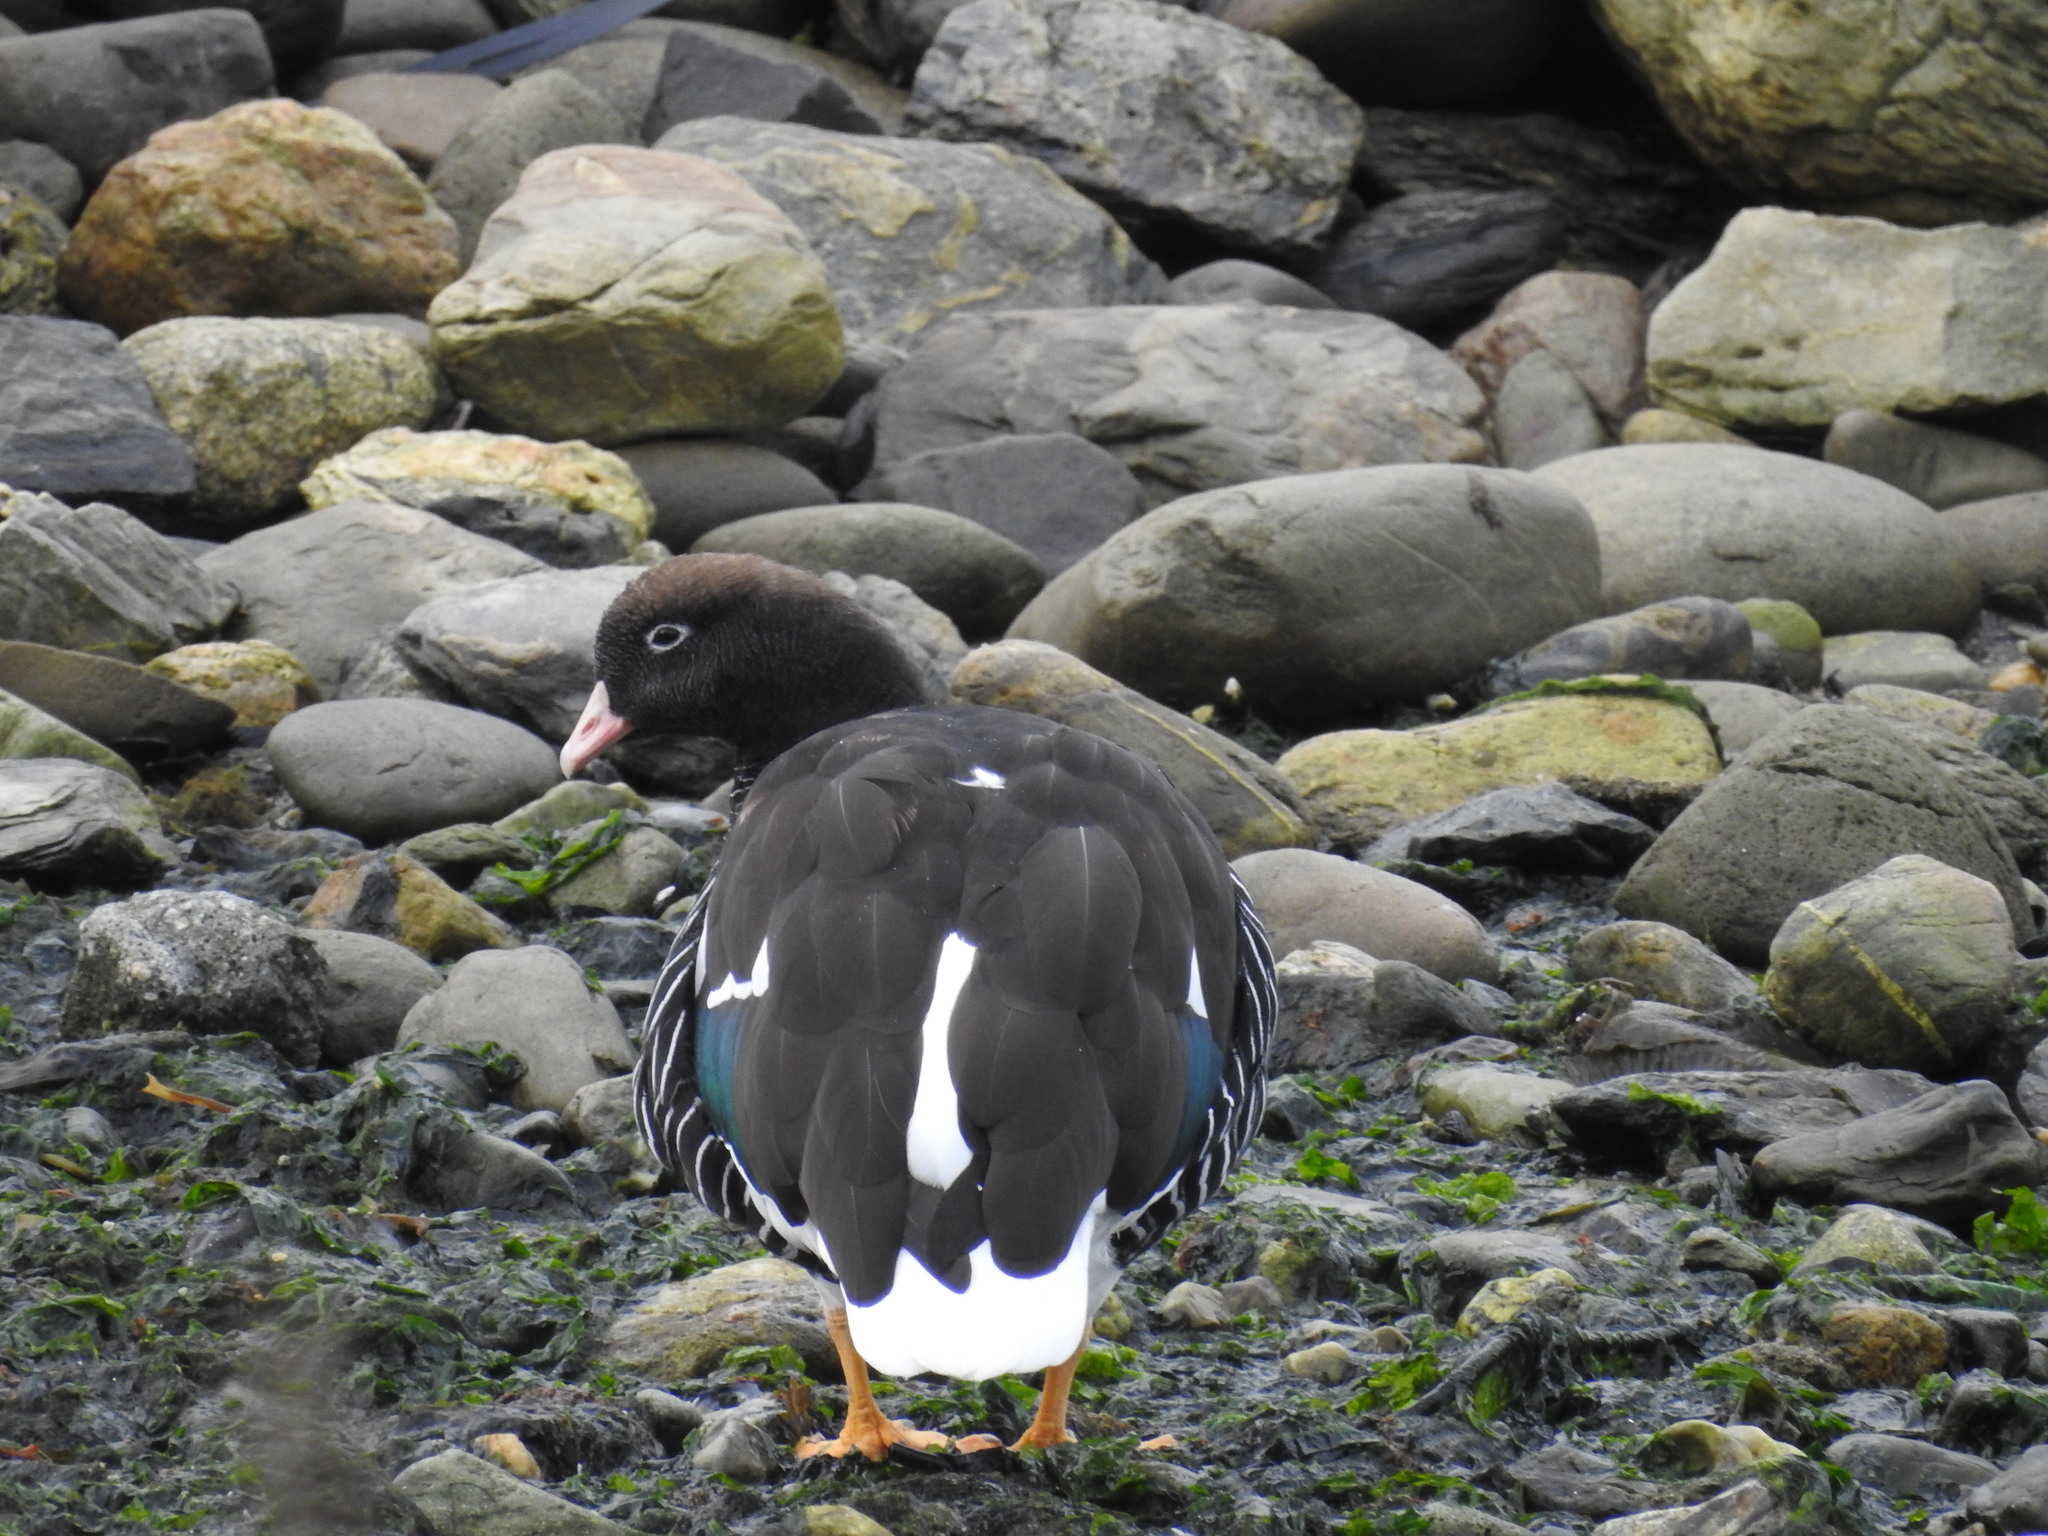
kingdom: Animalia
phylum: Chordata
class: Aves
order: Anseriformes
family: Anatidae
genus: Chloephaga
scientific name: Chloephaga hybrida
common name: Kelp goose
